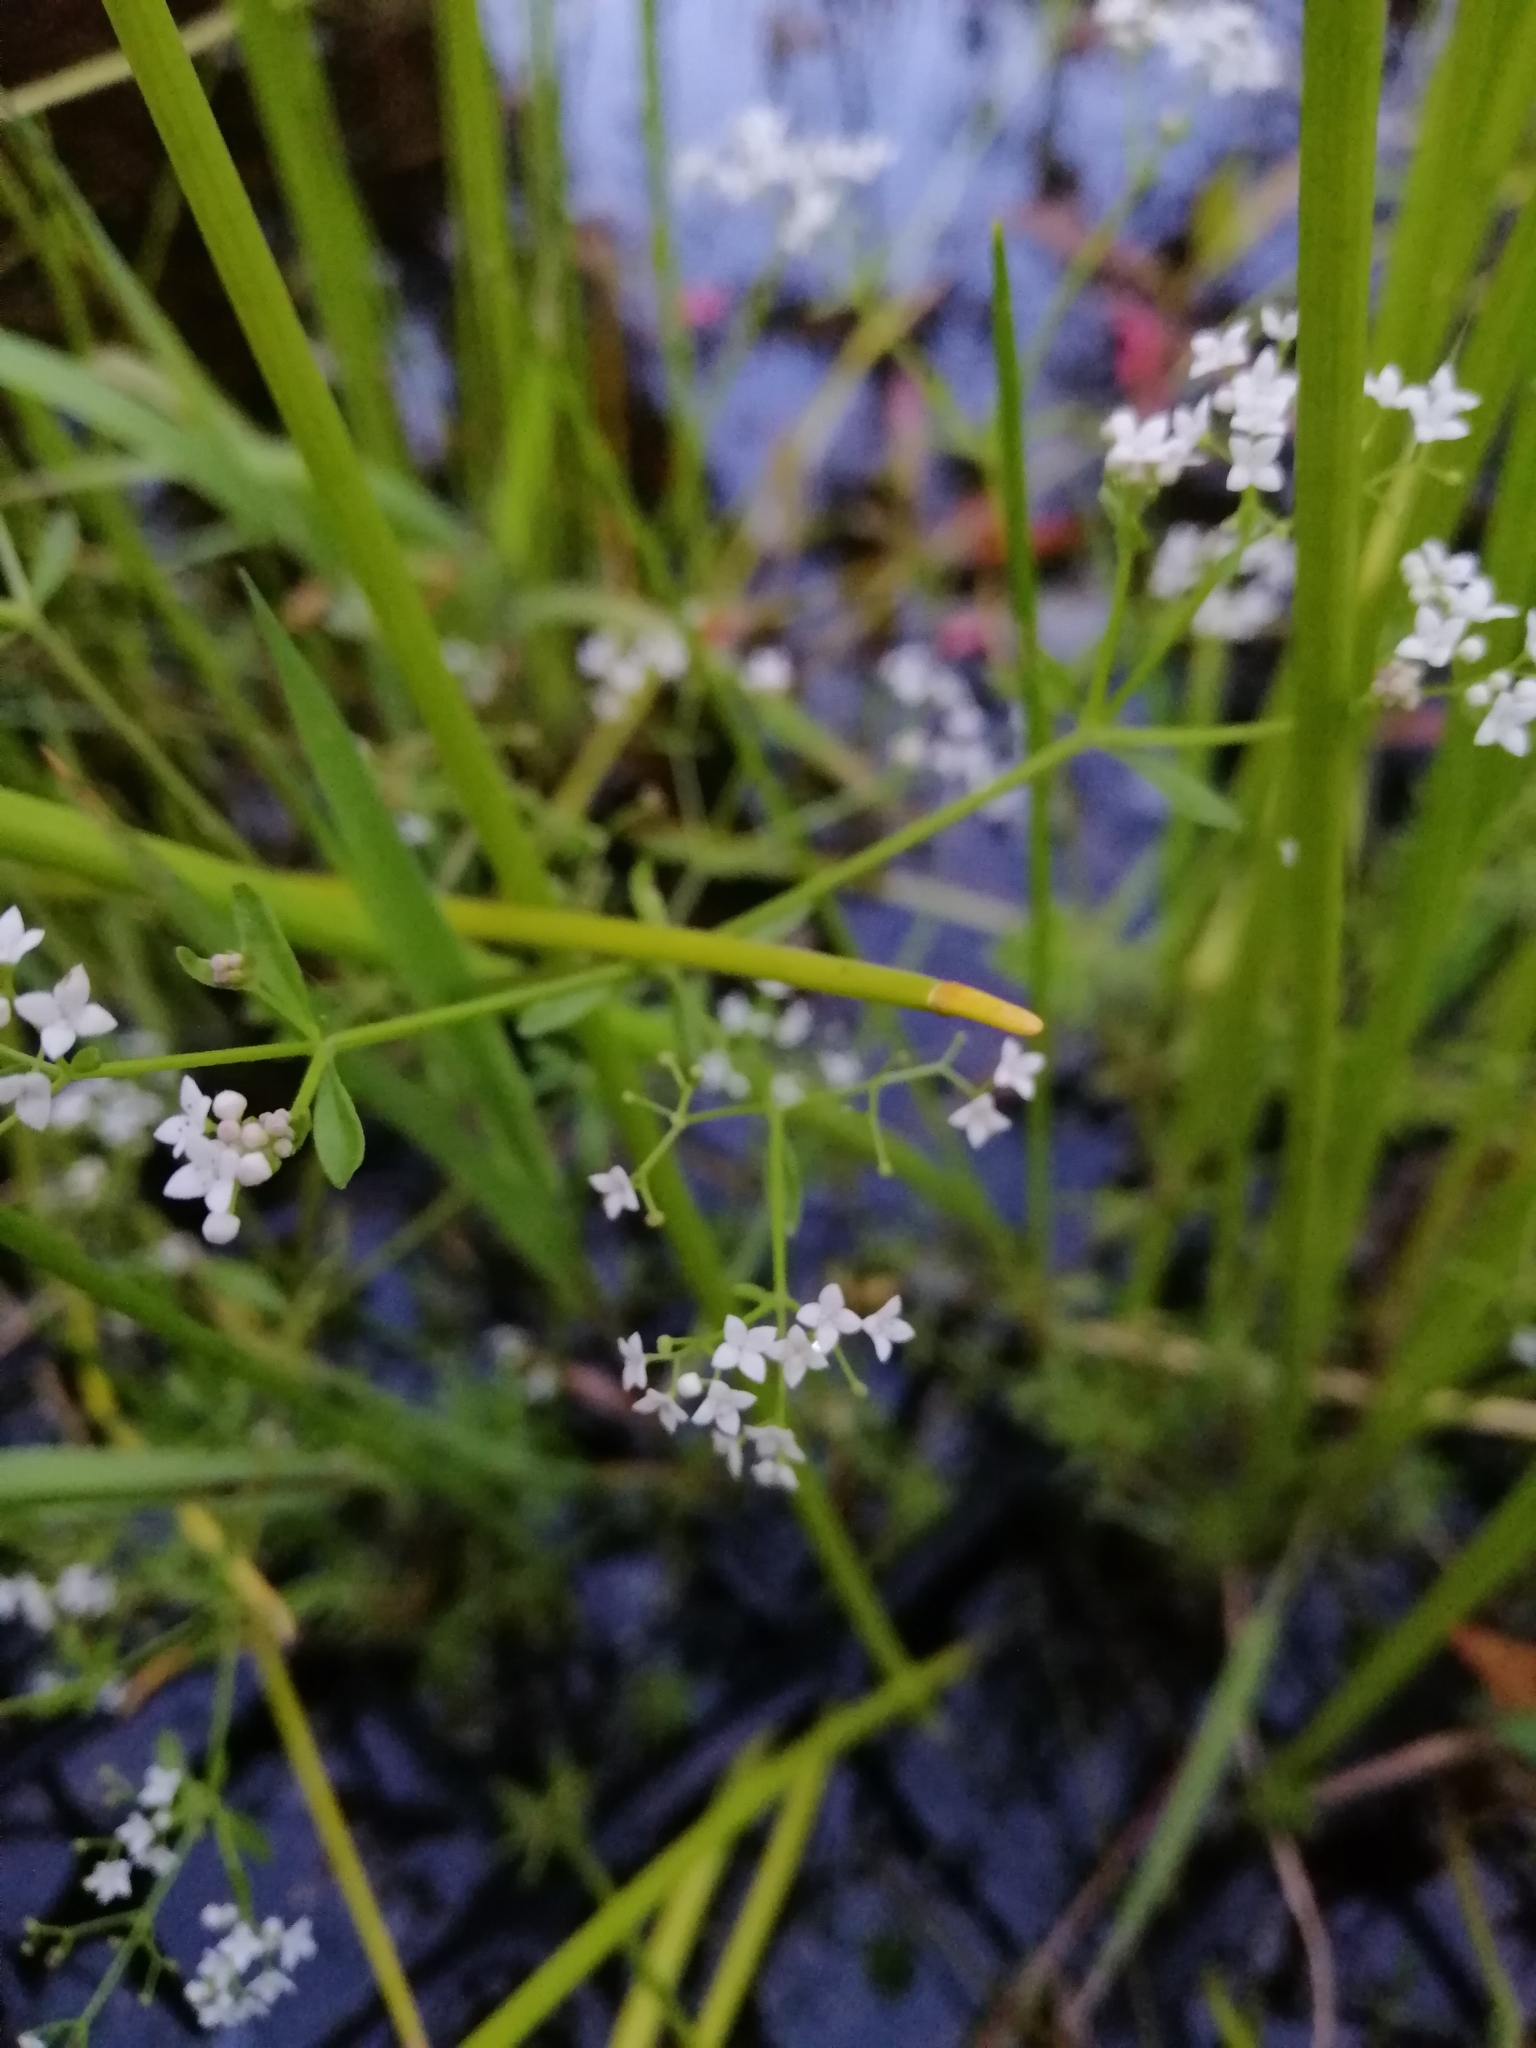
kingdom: Plantae
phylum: Tracheophyta
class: Magnoliopsida
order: Gentianales
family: Rubiaceae
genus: Galium
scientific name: Galium palustre
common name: Common marsh-bedstraw
